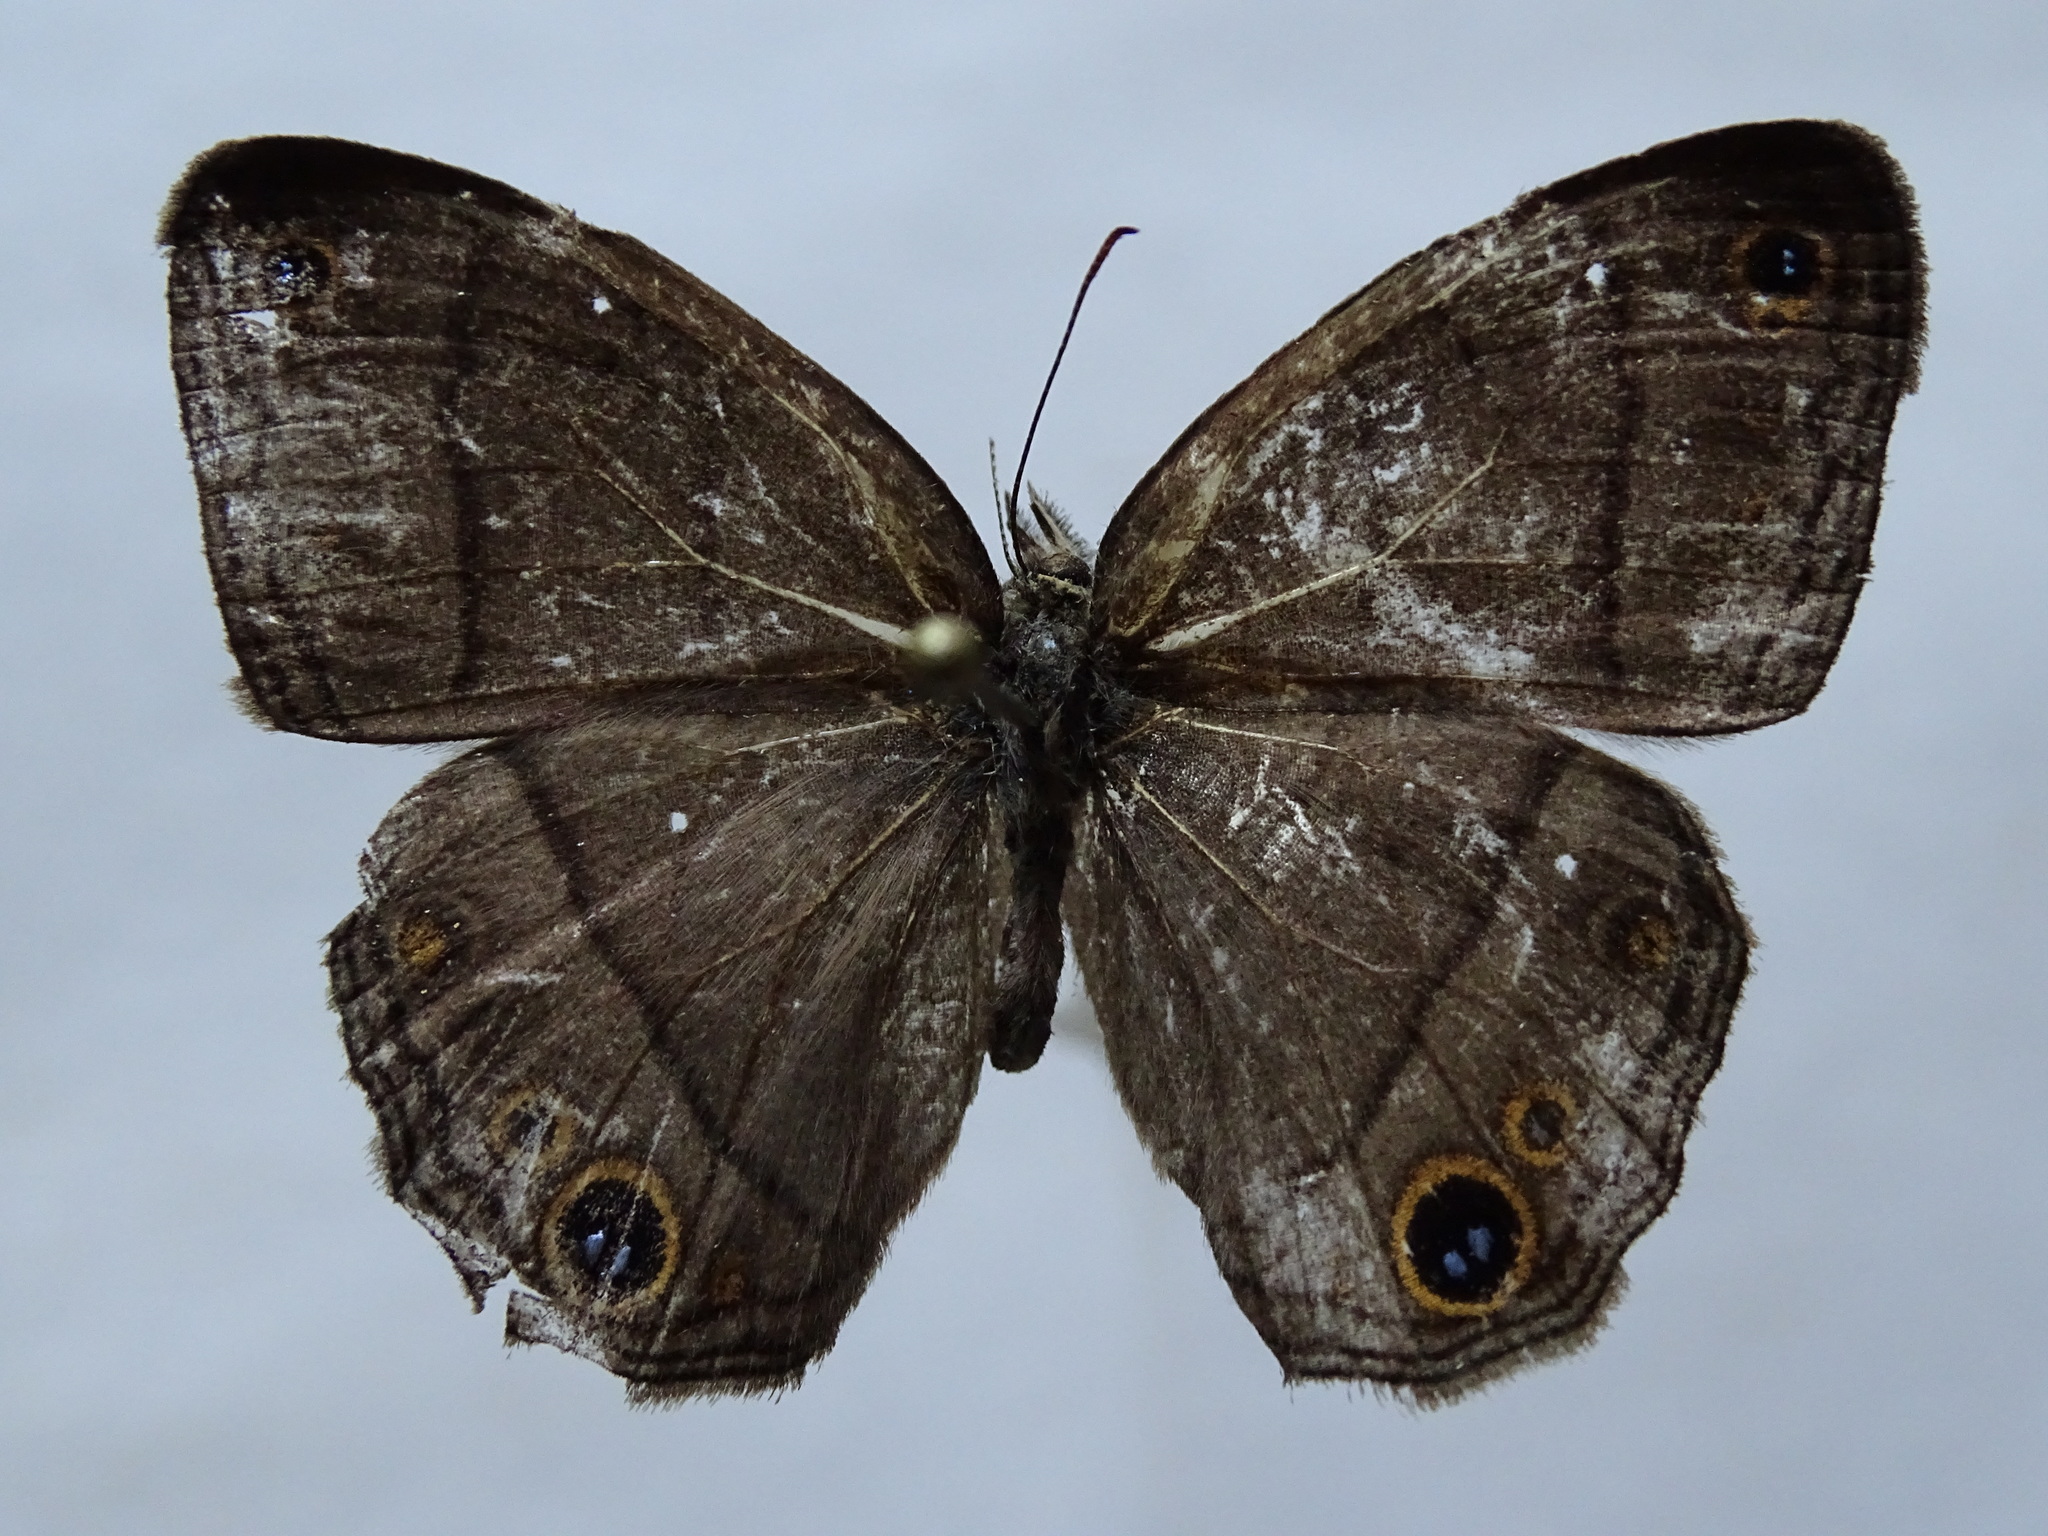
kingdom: Animalia
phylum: Arthropoda
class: Insecta
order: Lepidoptera
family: Nymphalidae
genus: Euptychia
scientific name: Euptychia Cissia pompilia
